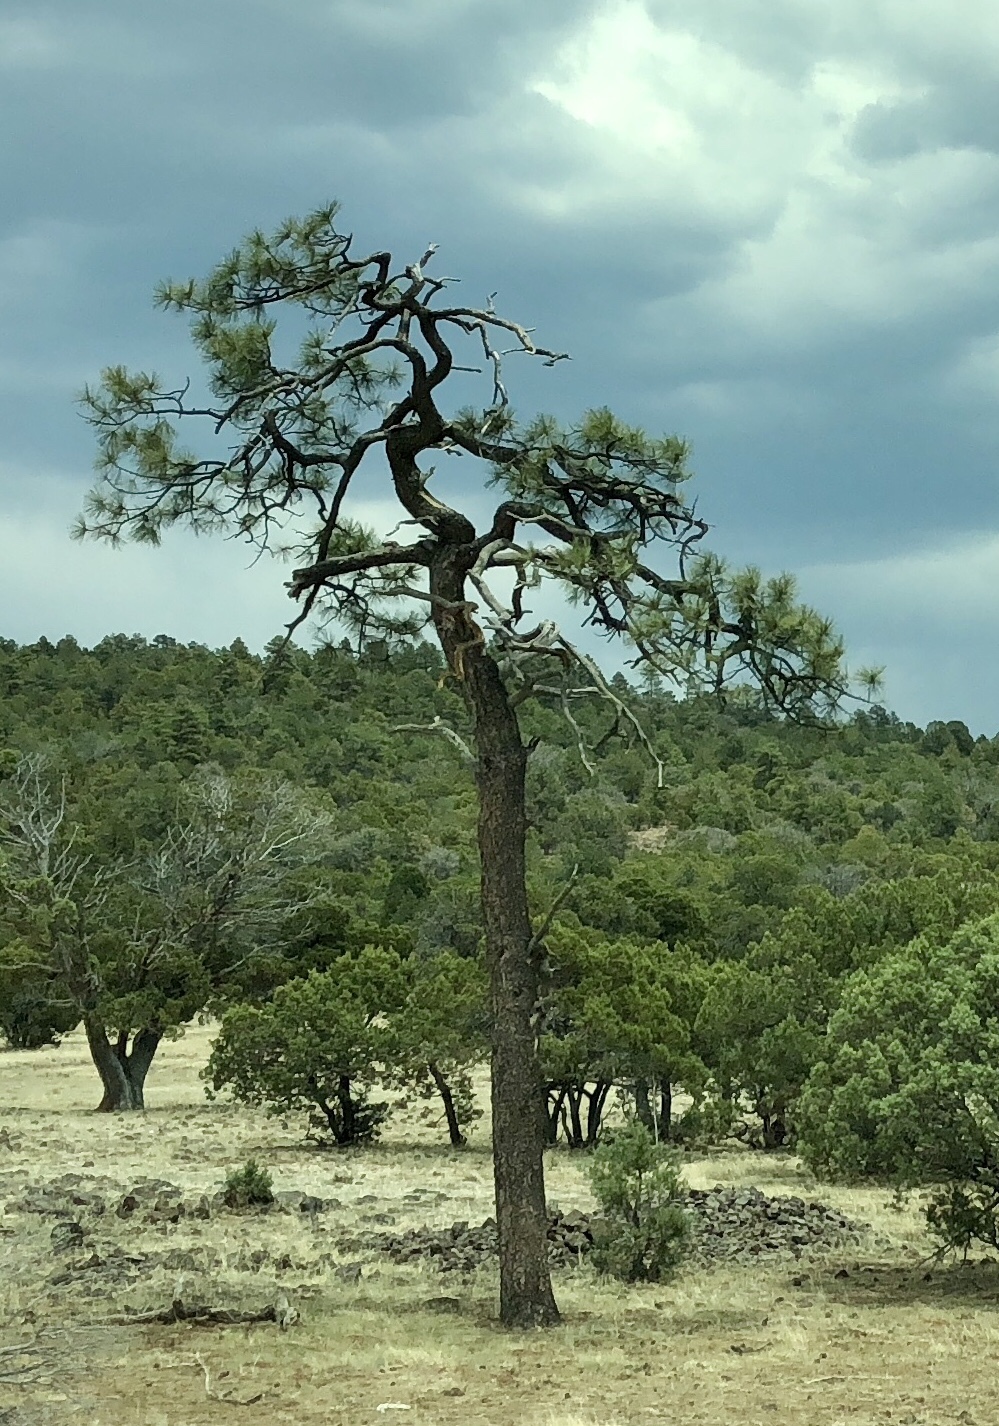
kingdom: Plantae
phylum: Tracheophyta
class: Pinopsida
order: Pinales
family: Pinaceae
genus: Pinus
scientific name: Pinus ponderosa
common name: Western yellow-pine
